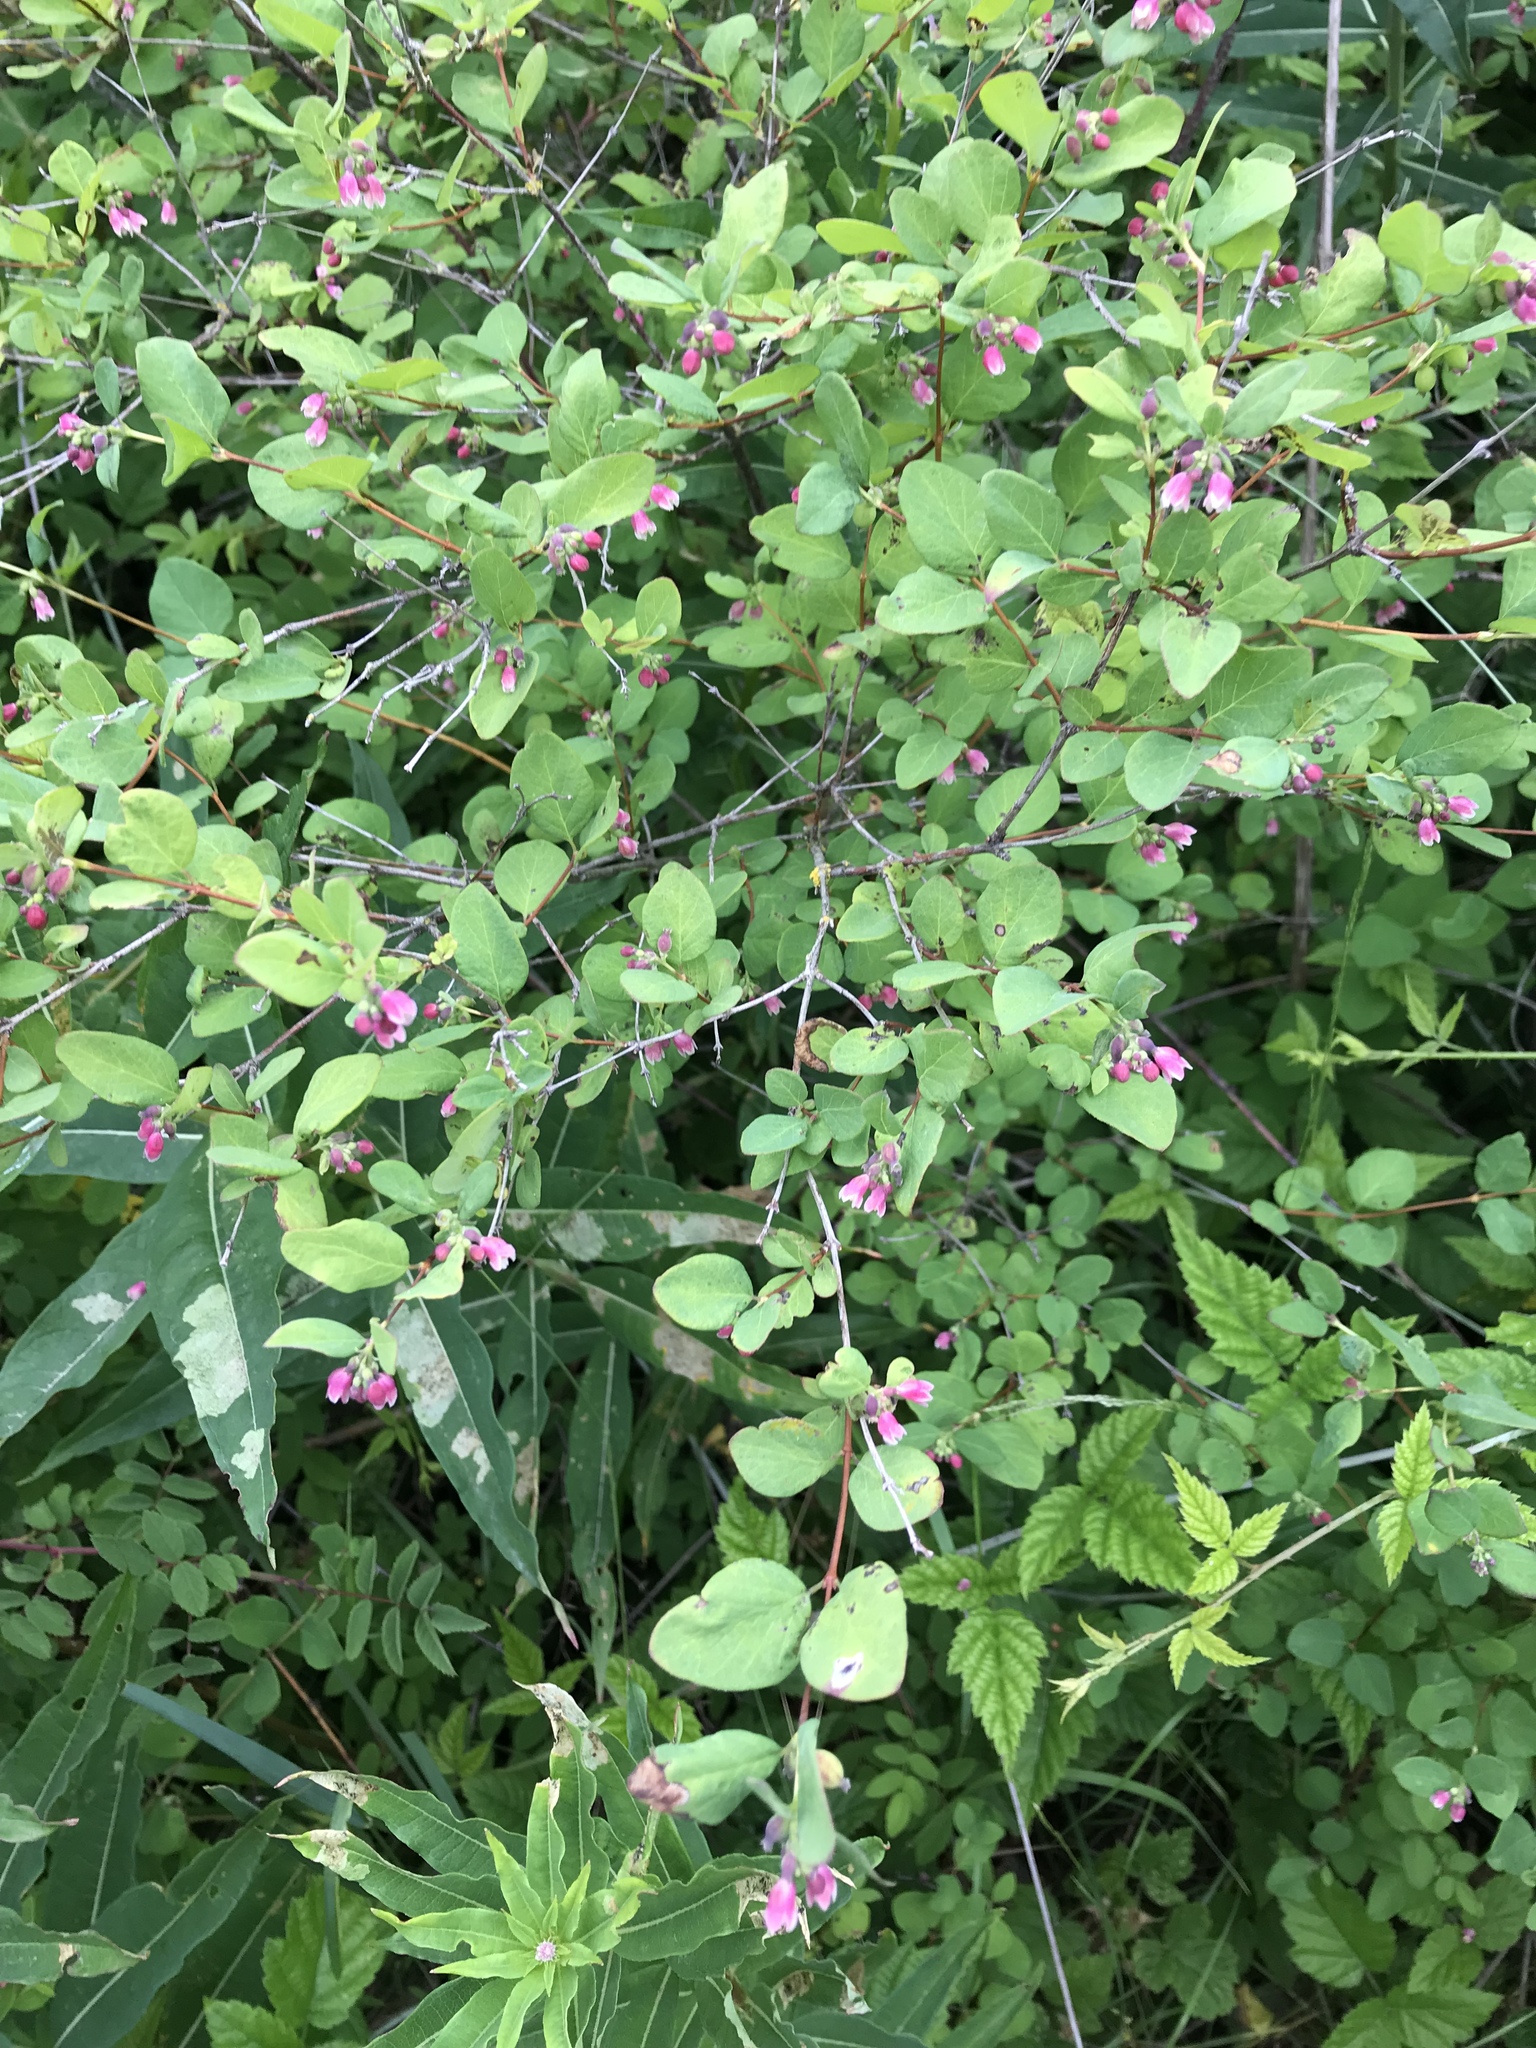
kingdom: Plantae
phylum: Tracheophyta
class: Magnoliopsida
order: Dipsacales
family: Caprifoliaceae
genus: Symphoricarpos
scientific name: Symphoricarpos albus
